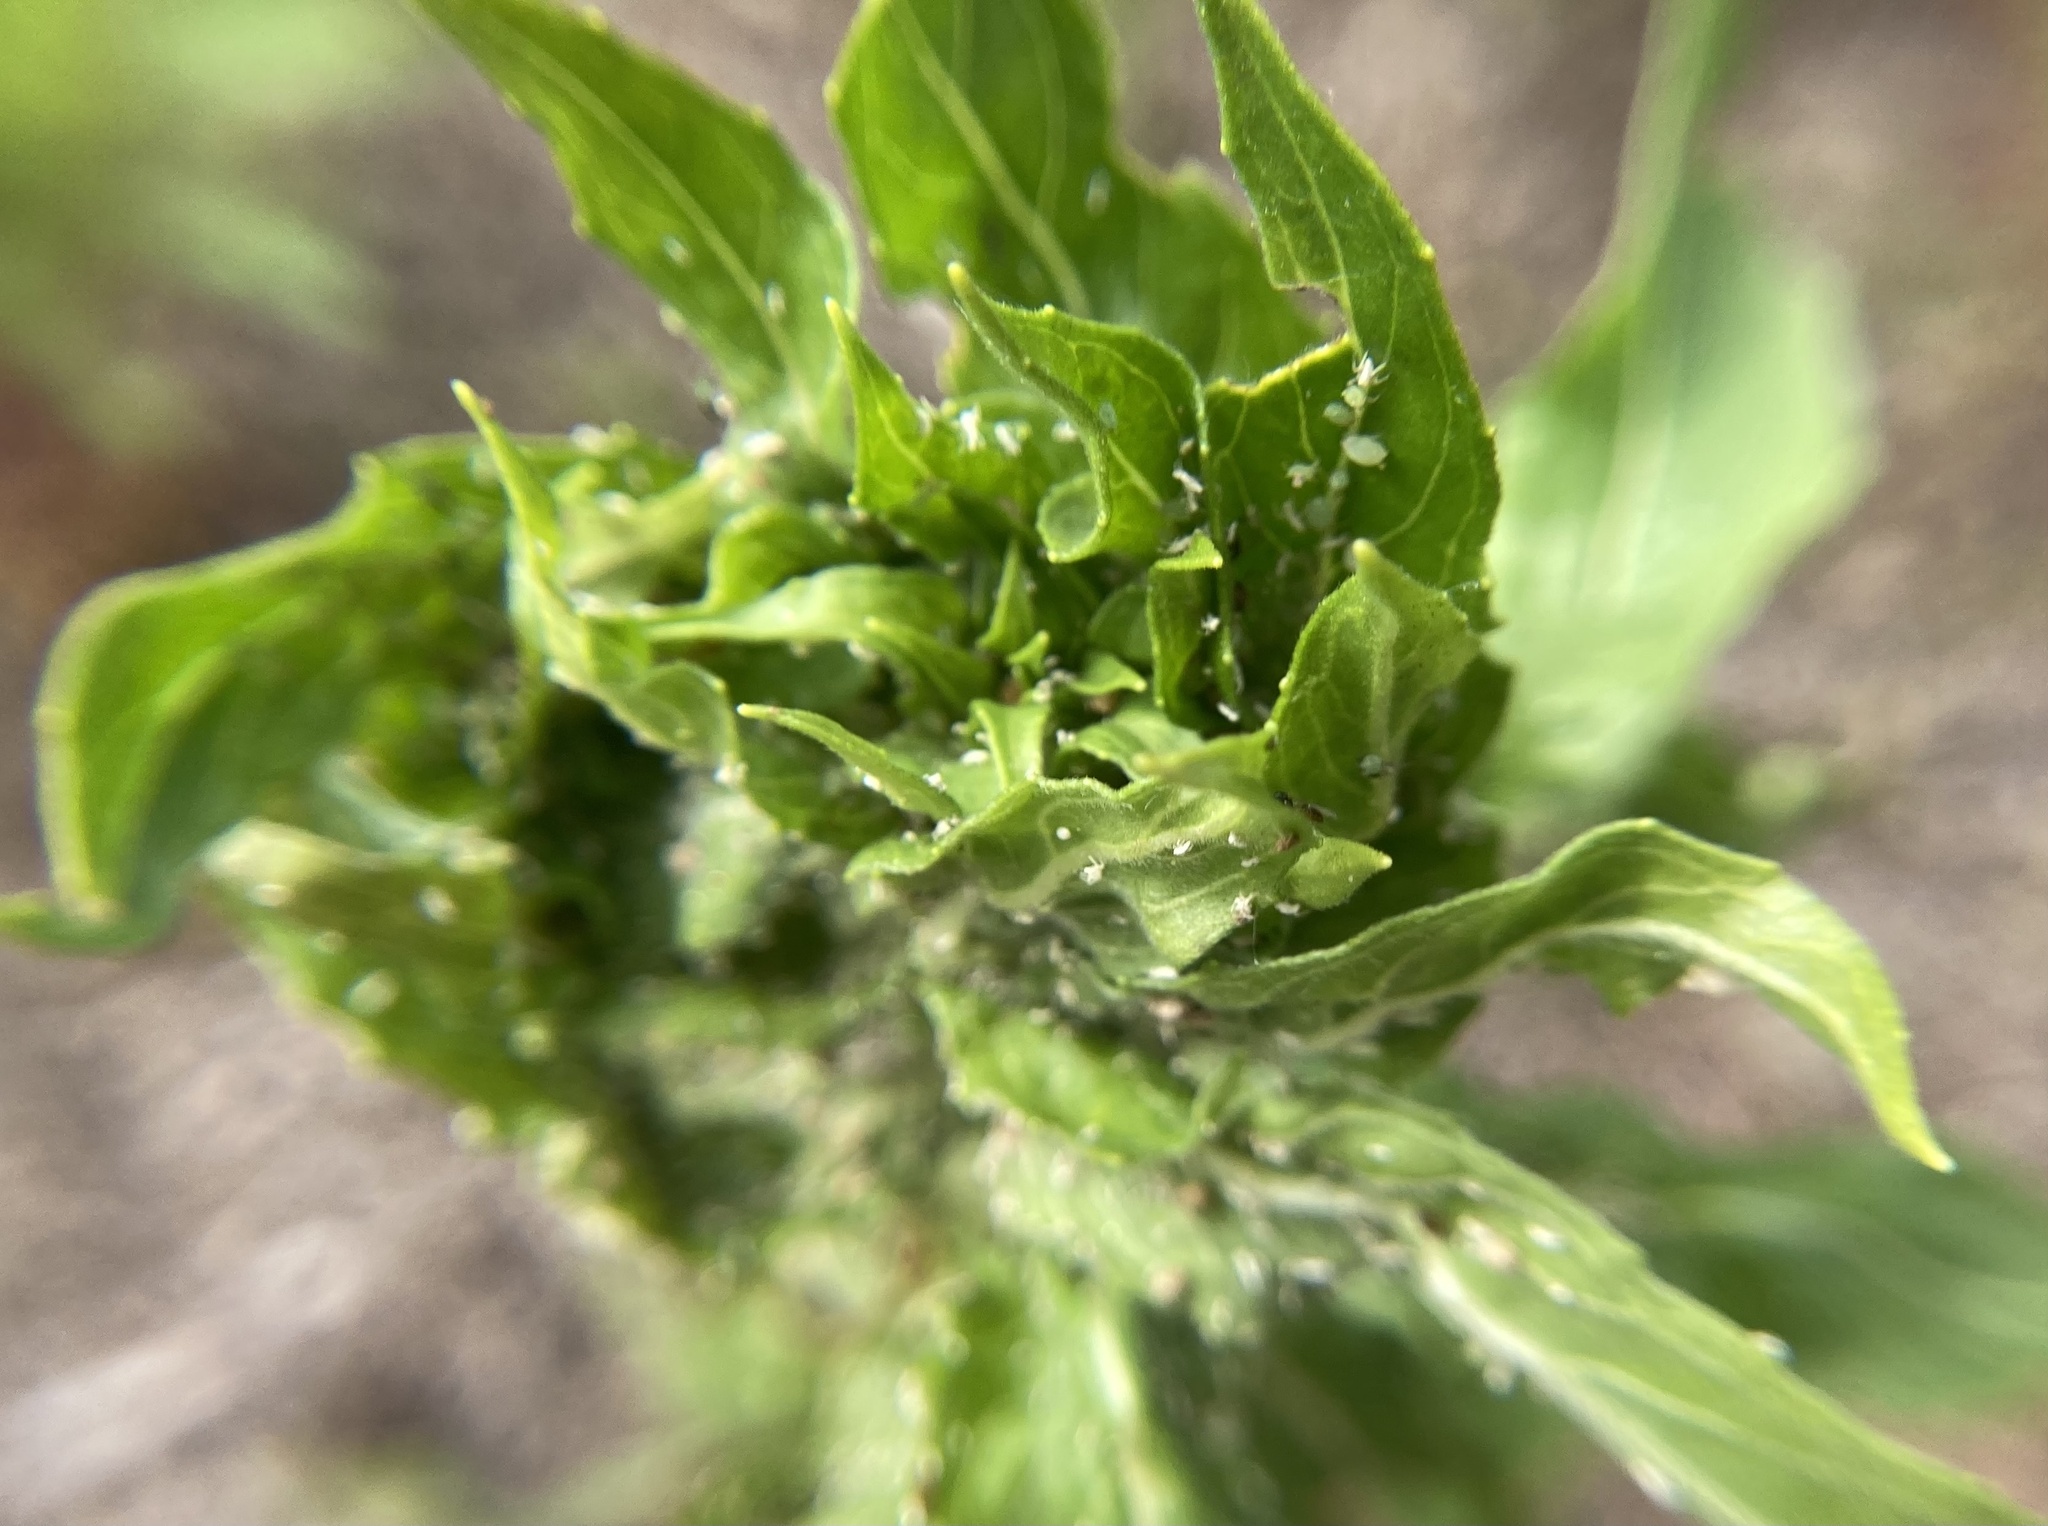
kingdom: Plantae
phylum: Tracheophyta
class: Magnoliopsida
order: Myrtales
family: Onagraceae
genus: Oenothera
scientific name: Oenothera biennis
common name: Common evening-primrose
